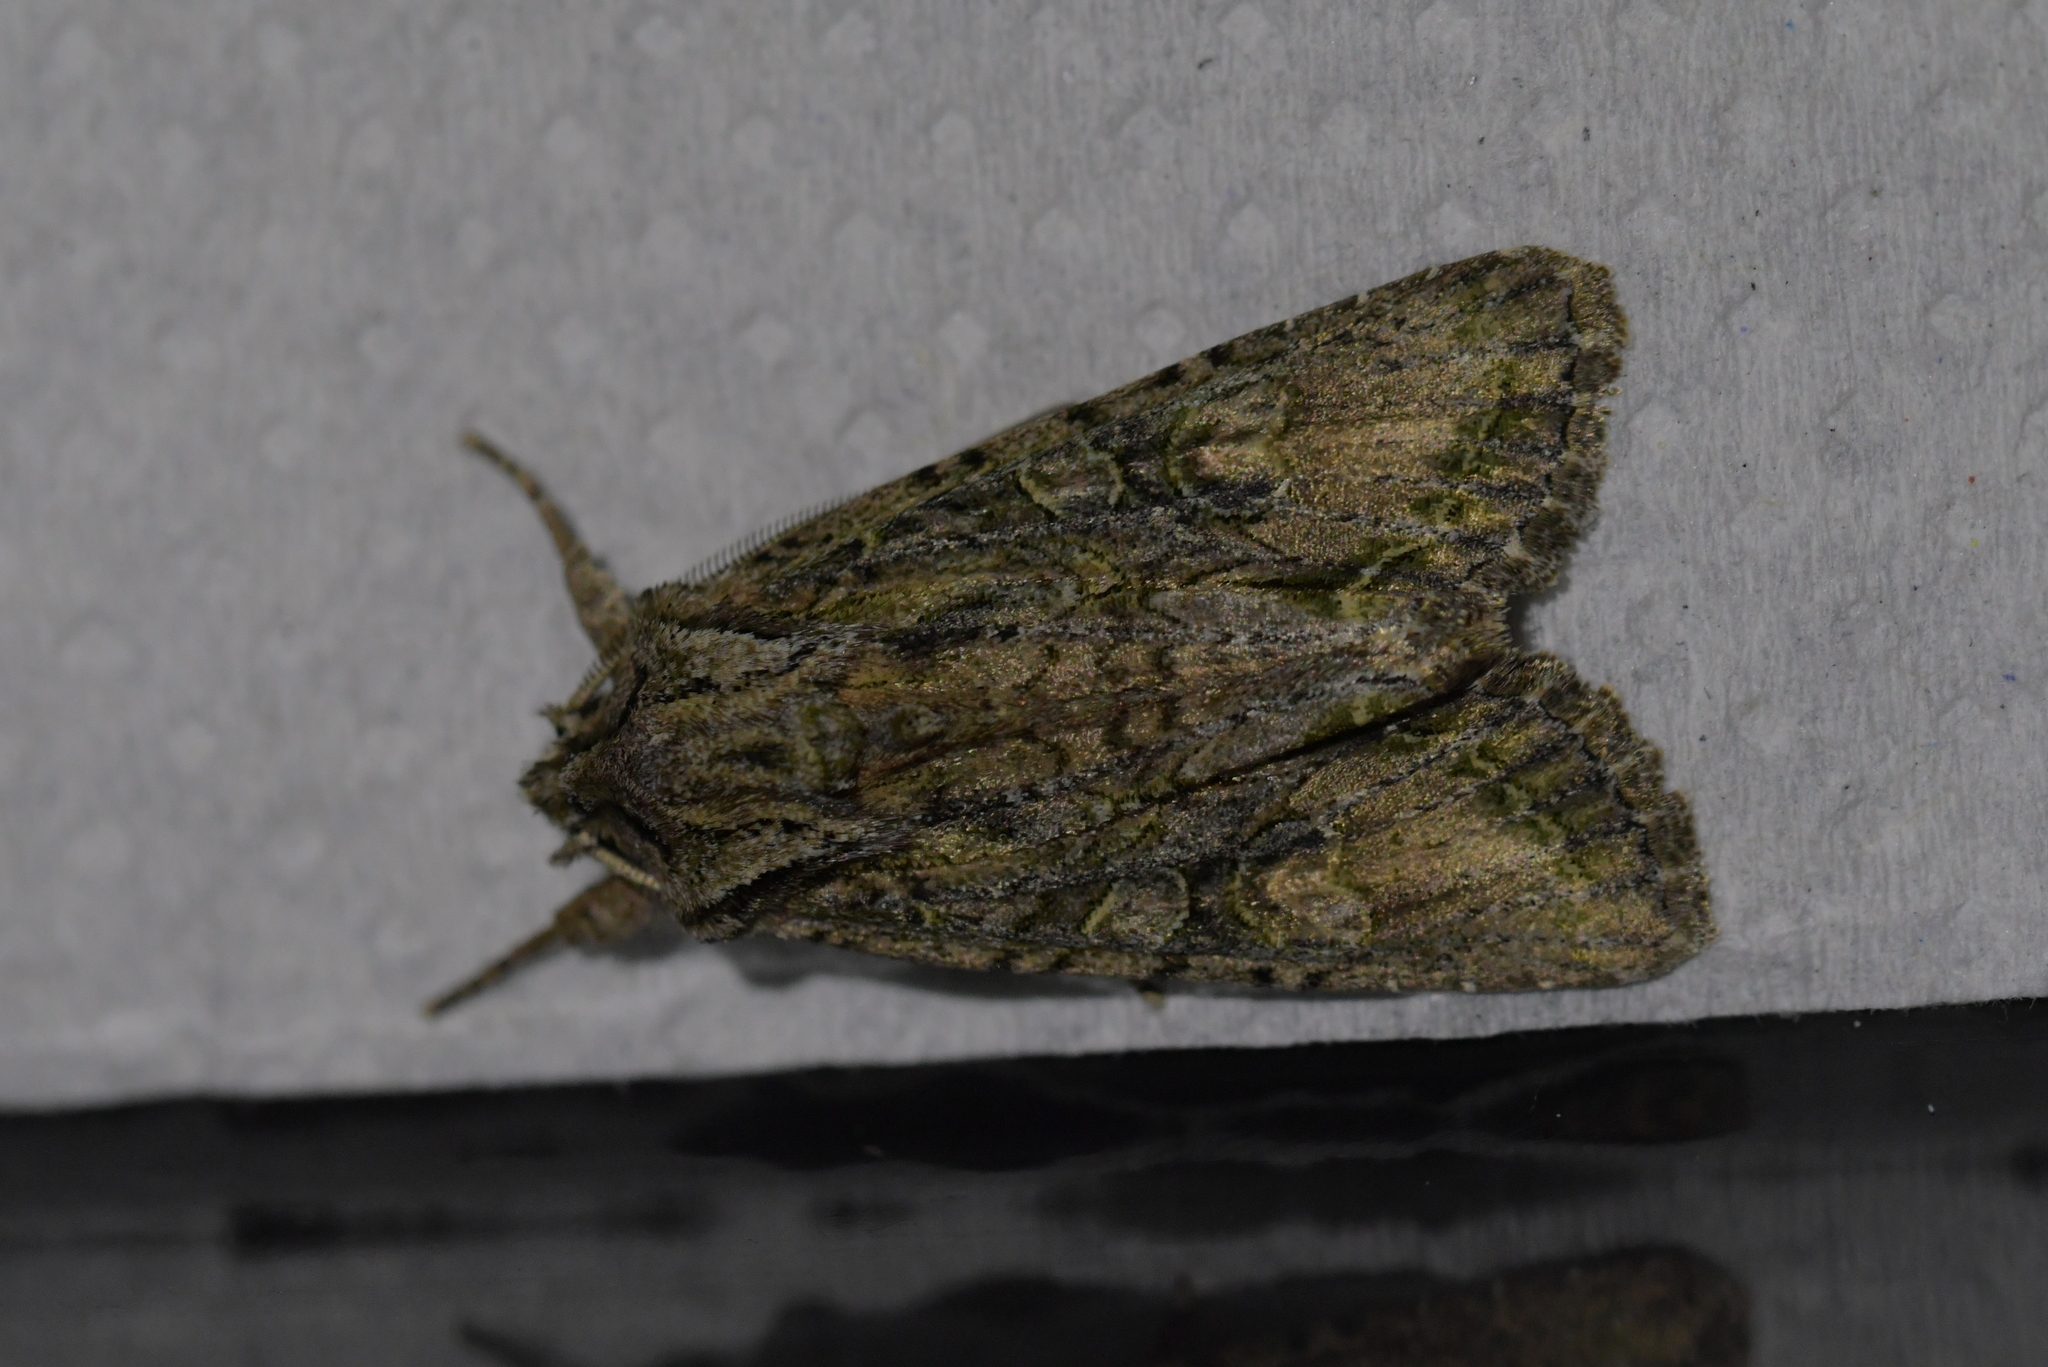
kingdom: Animalia
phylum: Arthropoda
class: Insecta
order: Lepidoptera
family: Noctuidae
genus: Ichneutica
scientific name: Ichneutica mutans
